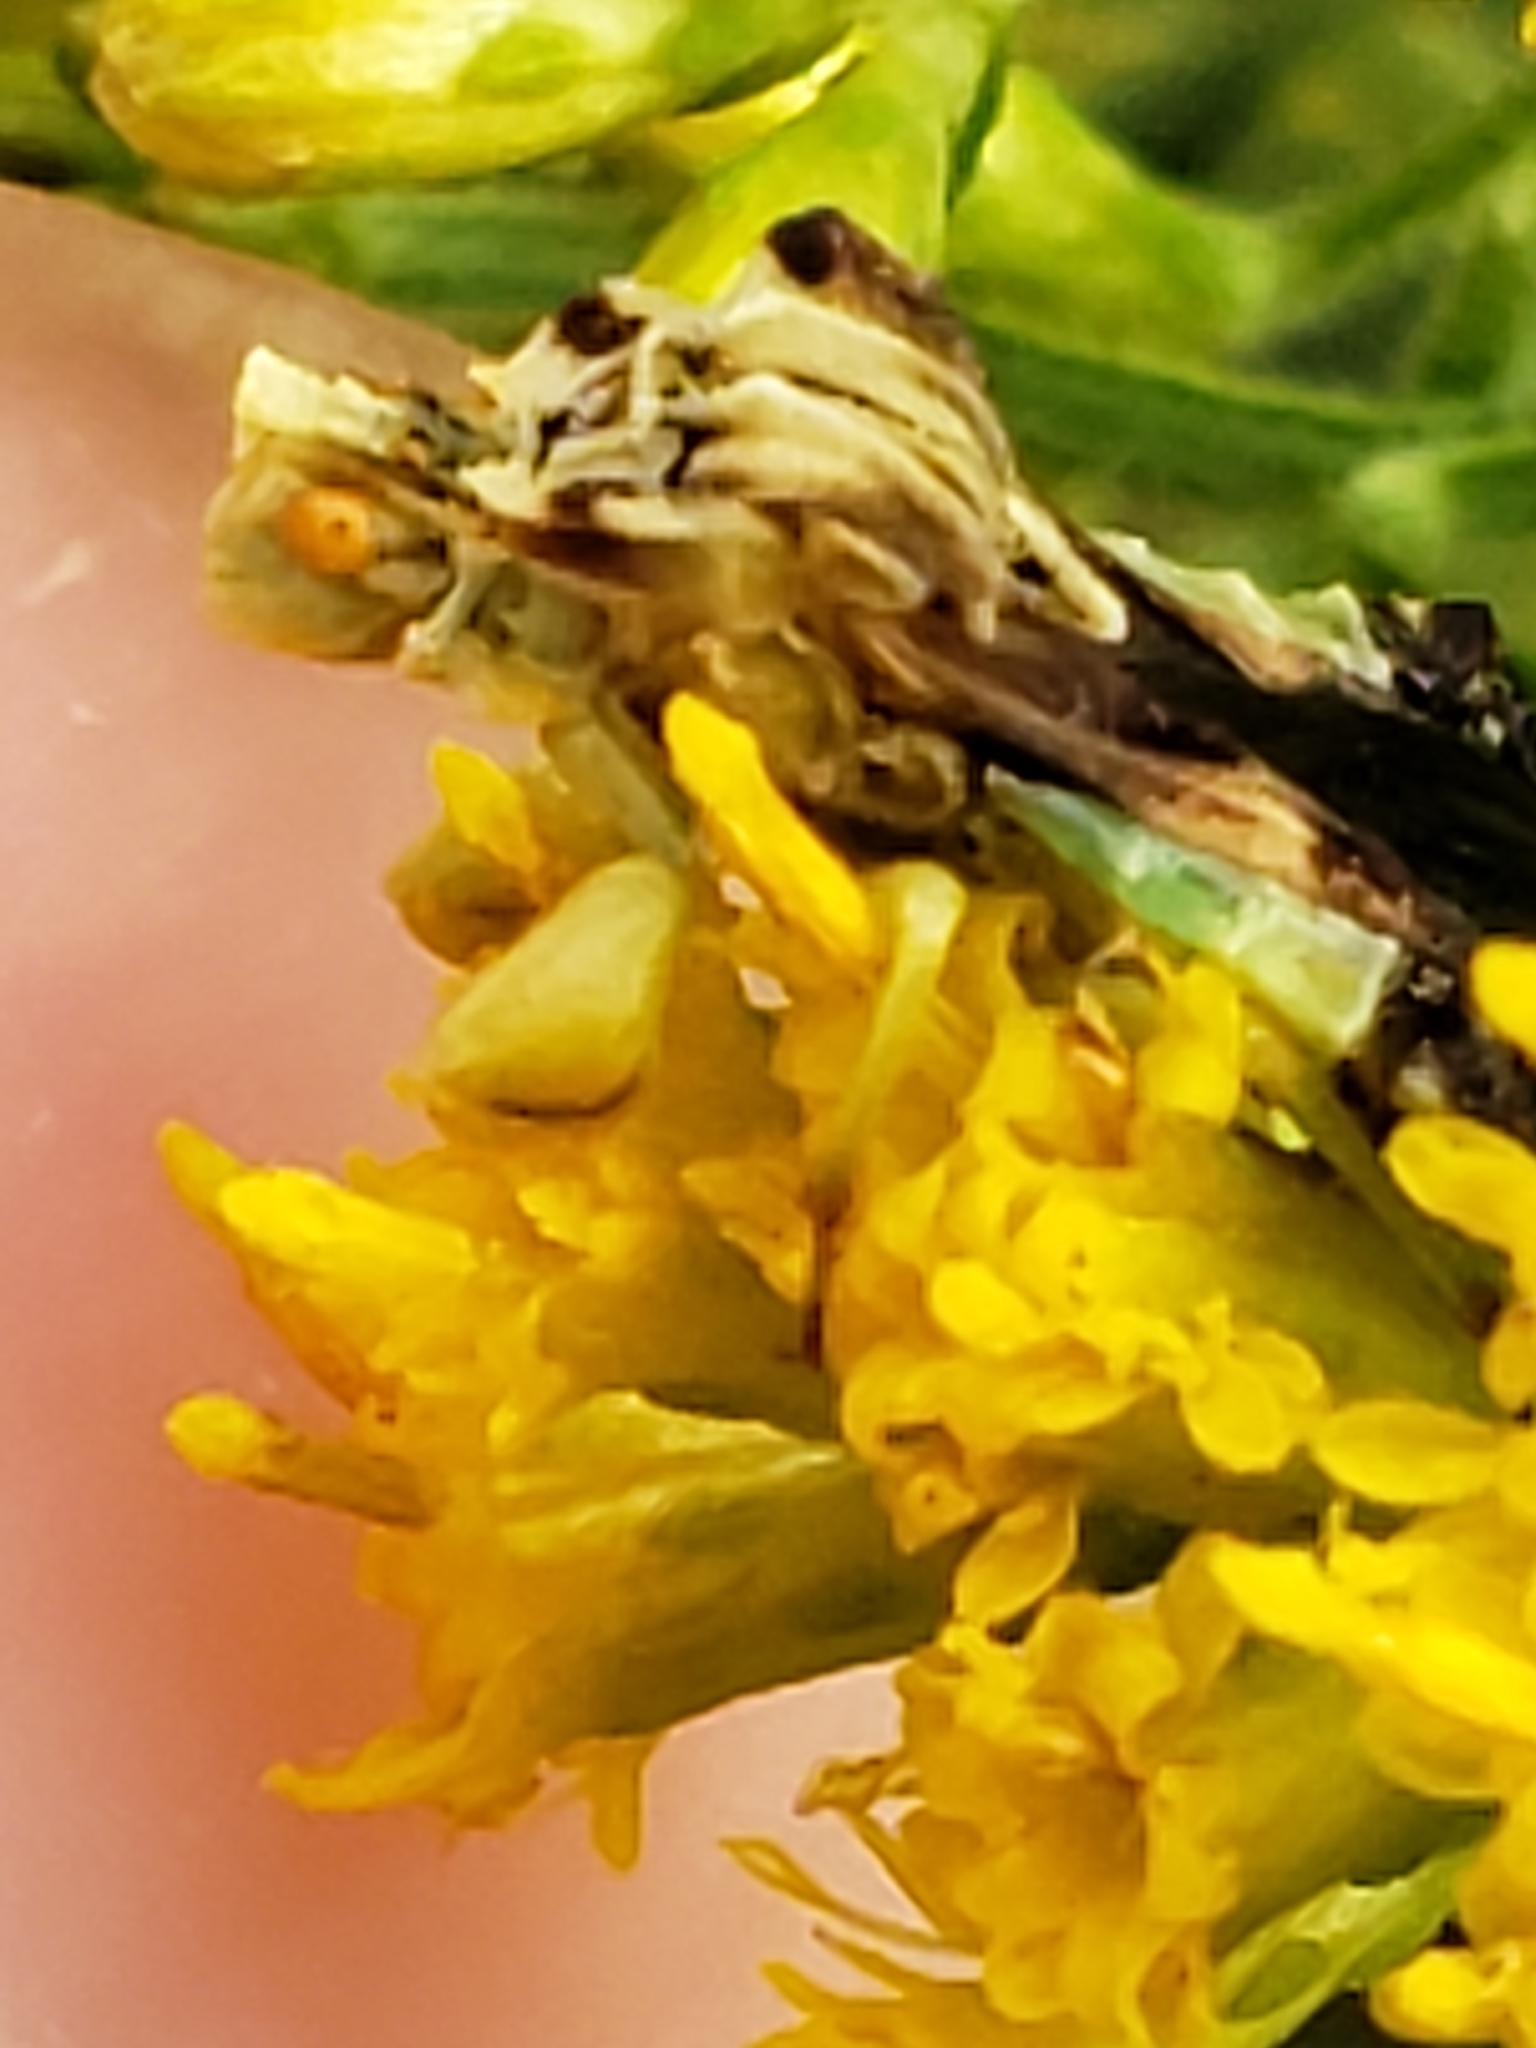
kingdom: Animalia
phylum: Arthropoda
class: Insecta
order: Hemiptera
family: Reduviidae
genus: Phymata
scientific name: Phymata fasciata
